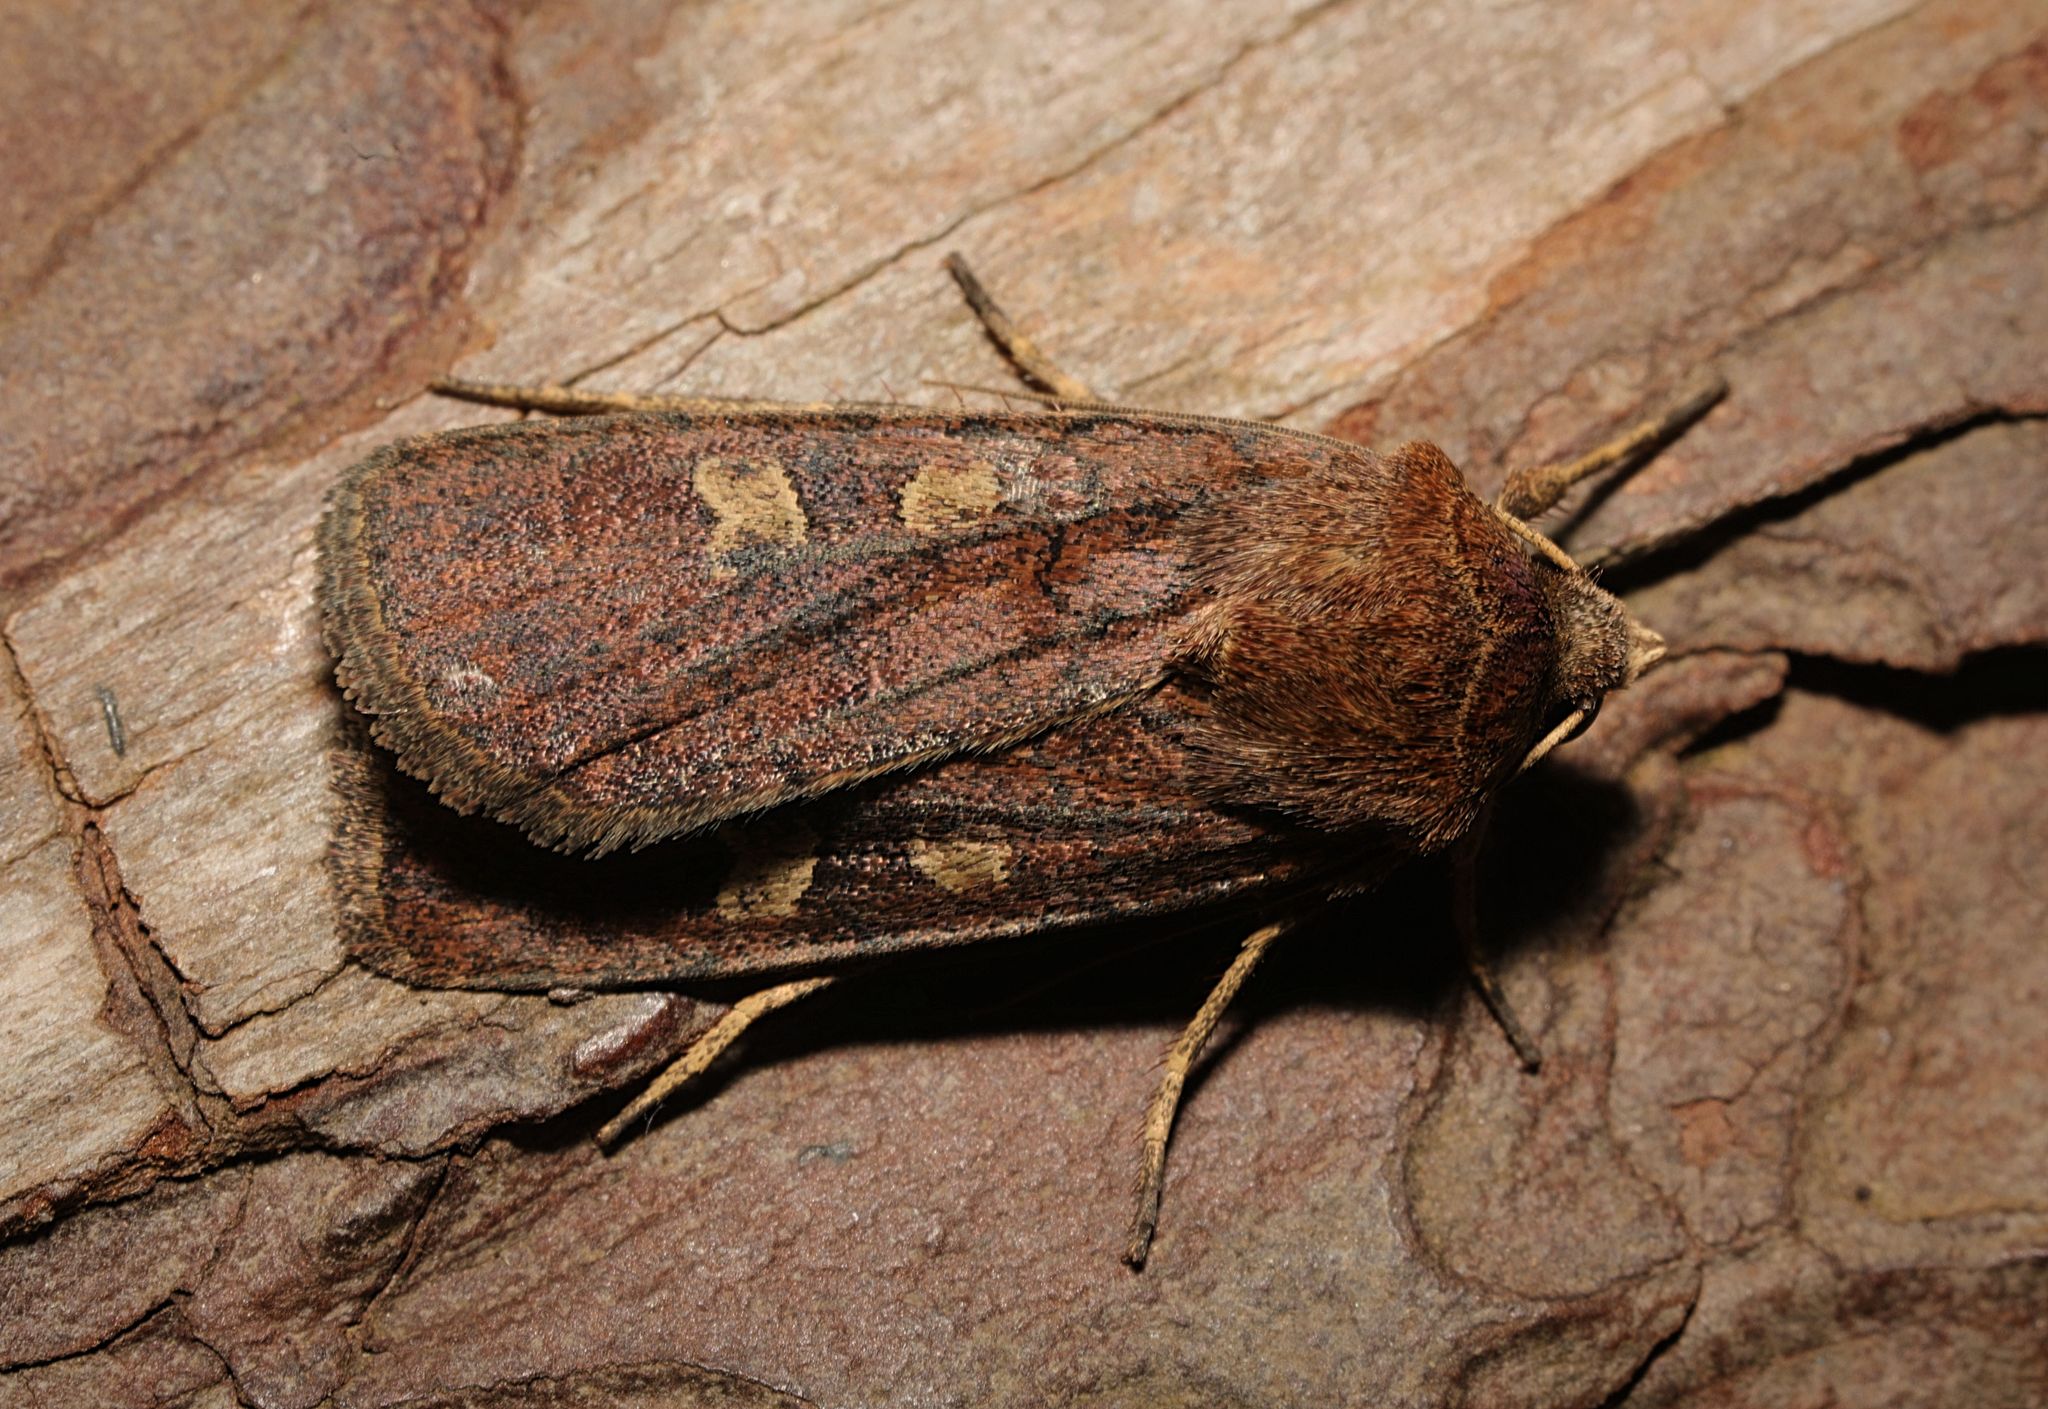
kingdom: Animalia
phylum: Arthropoda
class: Insecta
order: Lepidoptera
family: Noctuidae
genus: Xestia
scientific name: Xestia xanthographa
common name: Square-spot rustic
